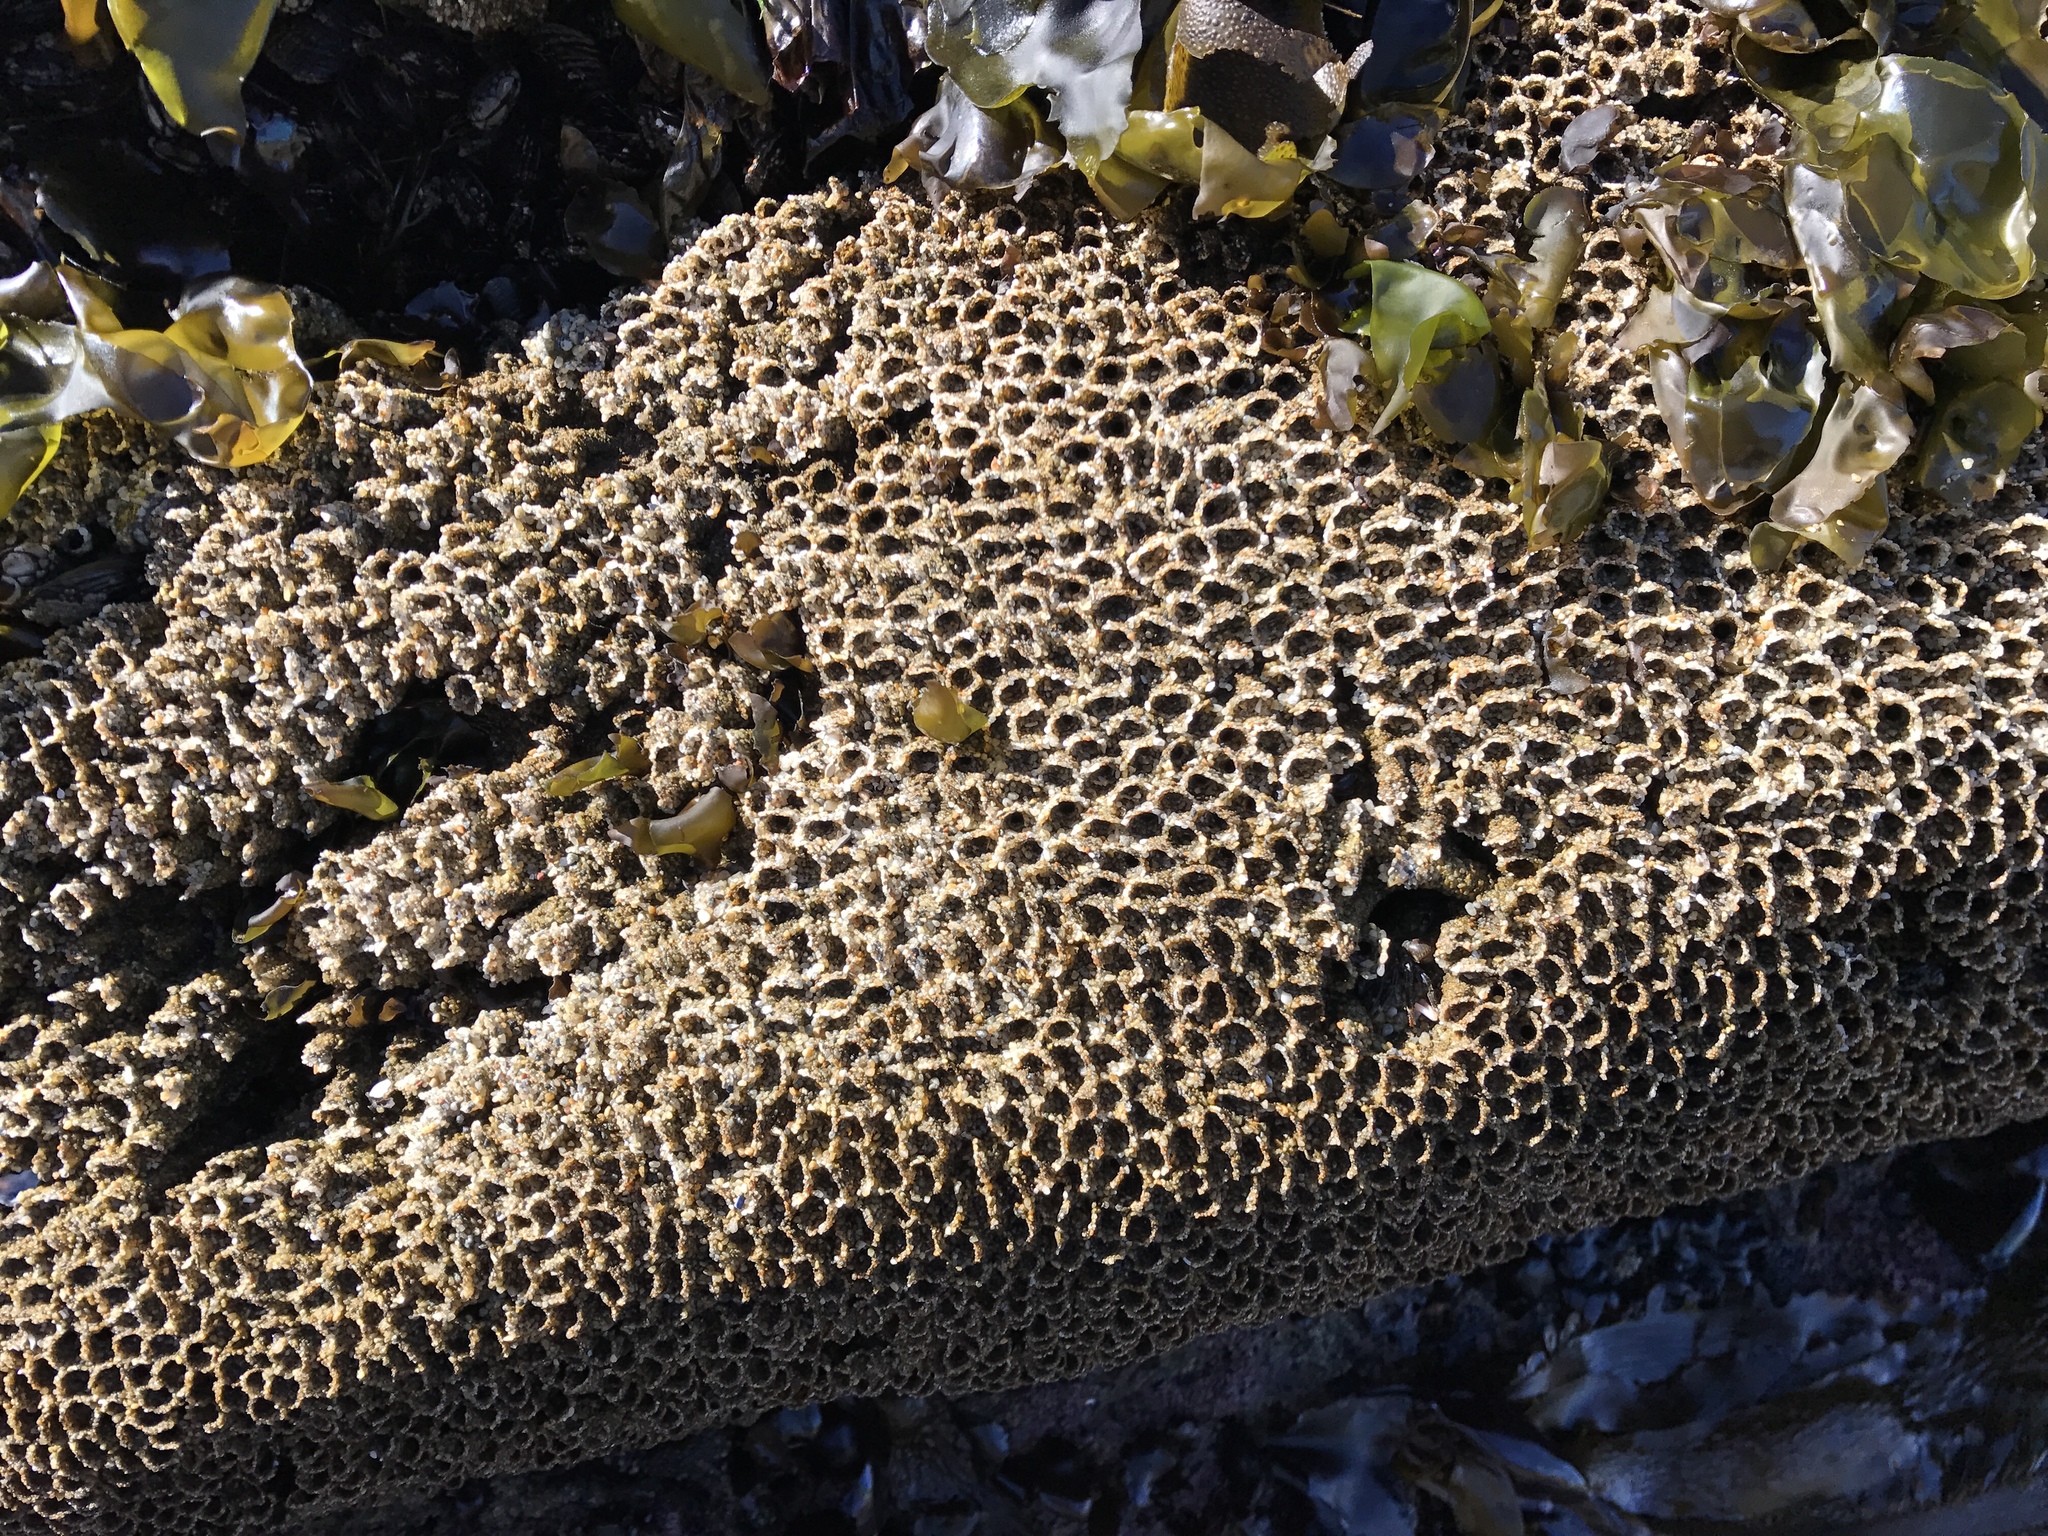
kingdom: Animalia
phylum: Annelida
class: Polychaeta
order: Sabellida
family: Sabellariidae
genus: Phragmatopoma
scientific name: Phragmatopoma californica
